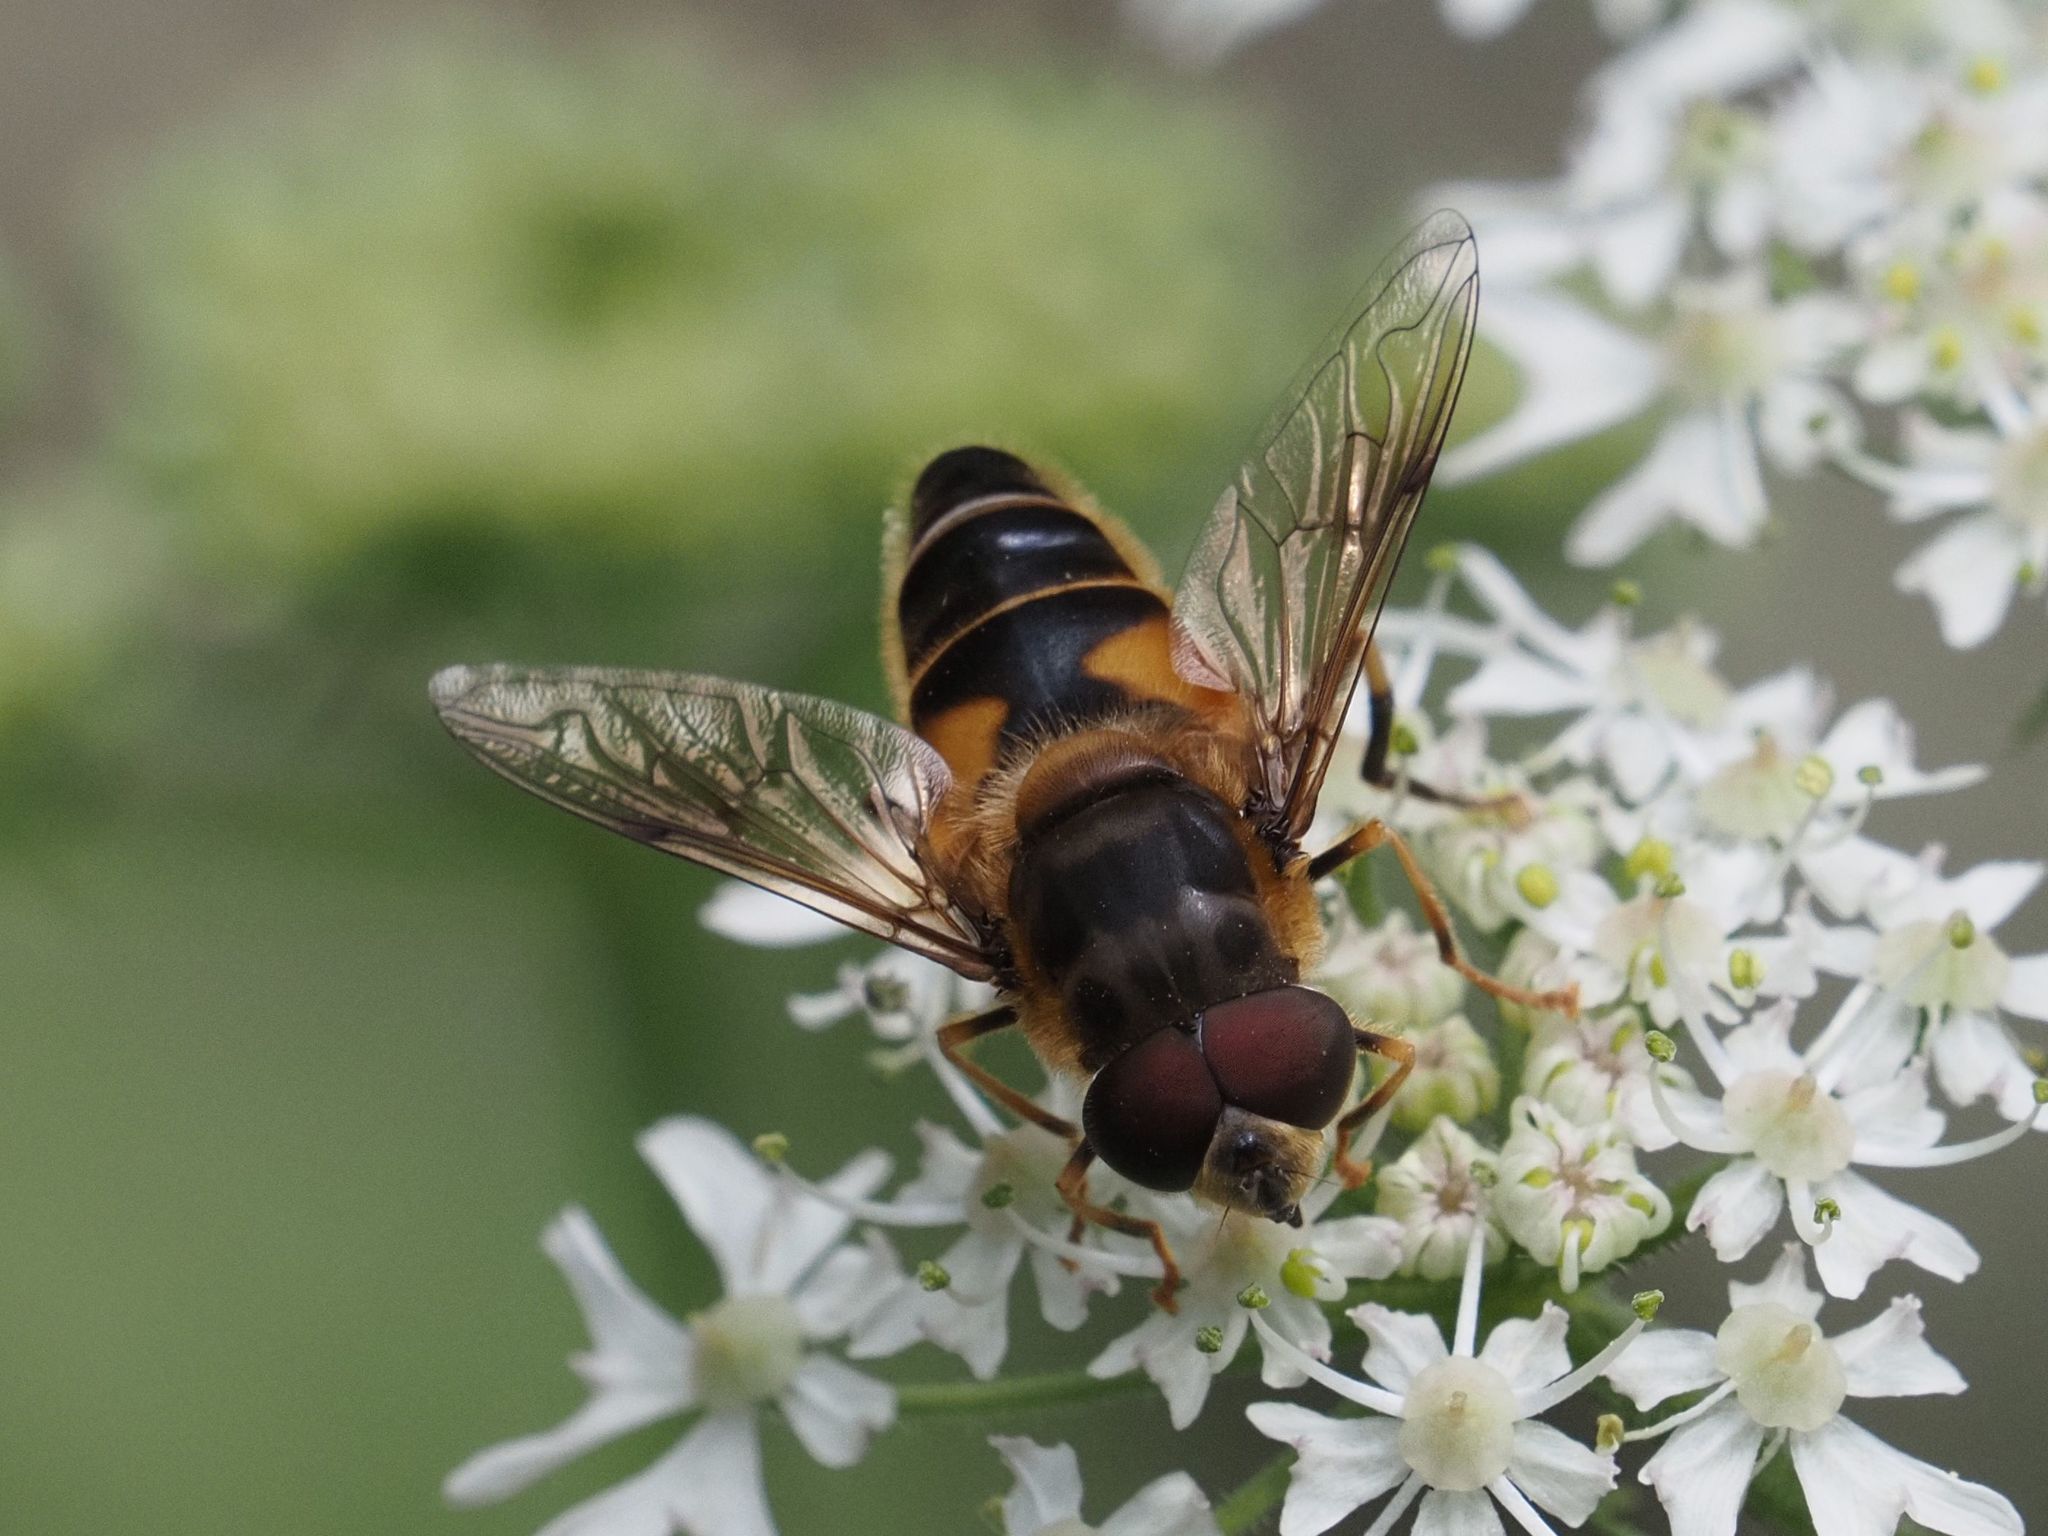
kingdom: Animalia
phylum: Arthropoda
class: Insecta
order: Diptera
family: Syrphidae
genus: Eristalis
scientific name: Eristalis pertinax
